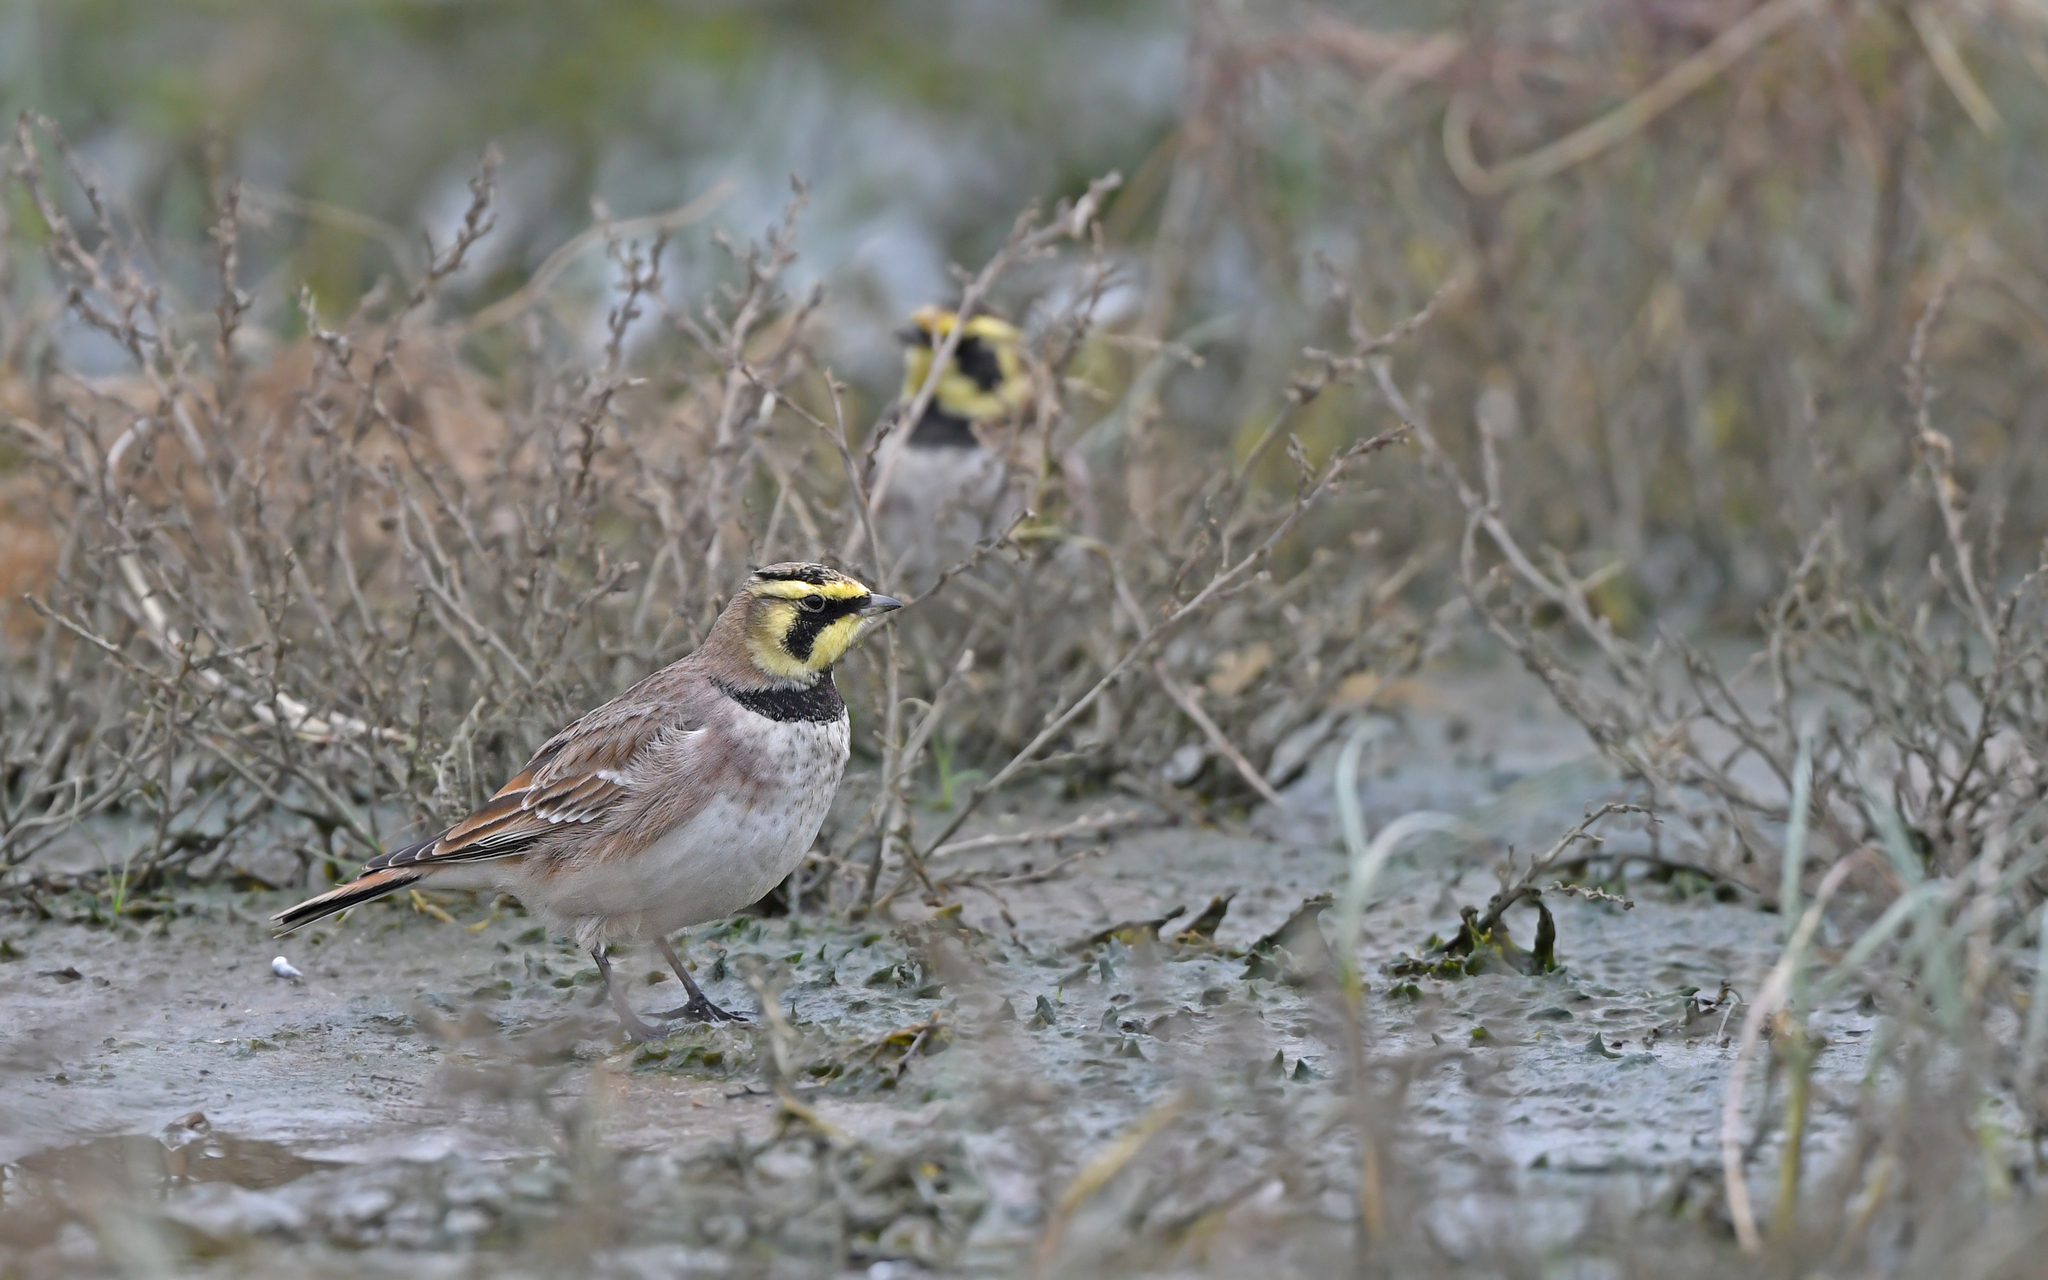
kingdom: Animalia
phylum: Chordata
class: Aves
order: Passeriformes
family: Alaudidae
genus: Eremophila
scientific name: Eremophila alpestris
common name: Horned lark
